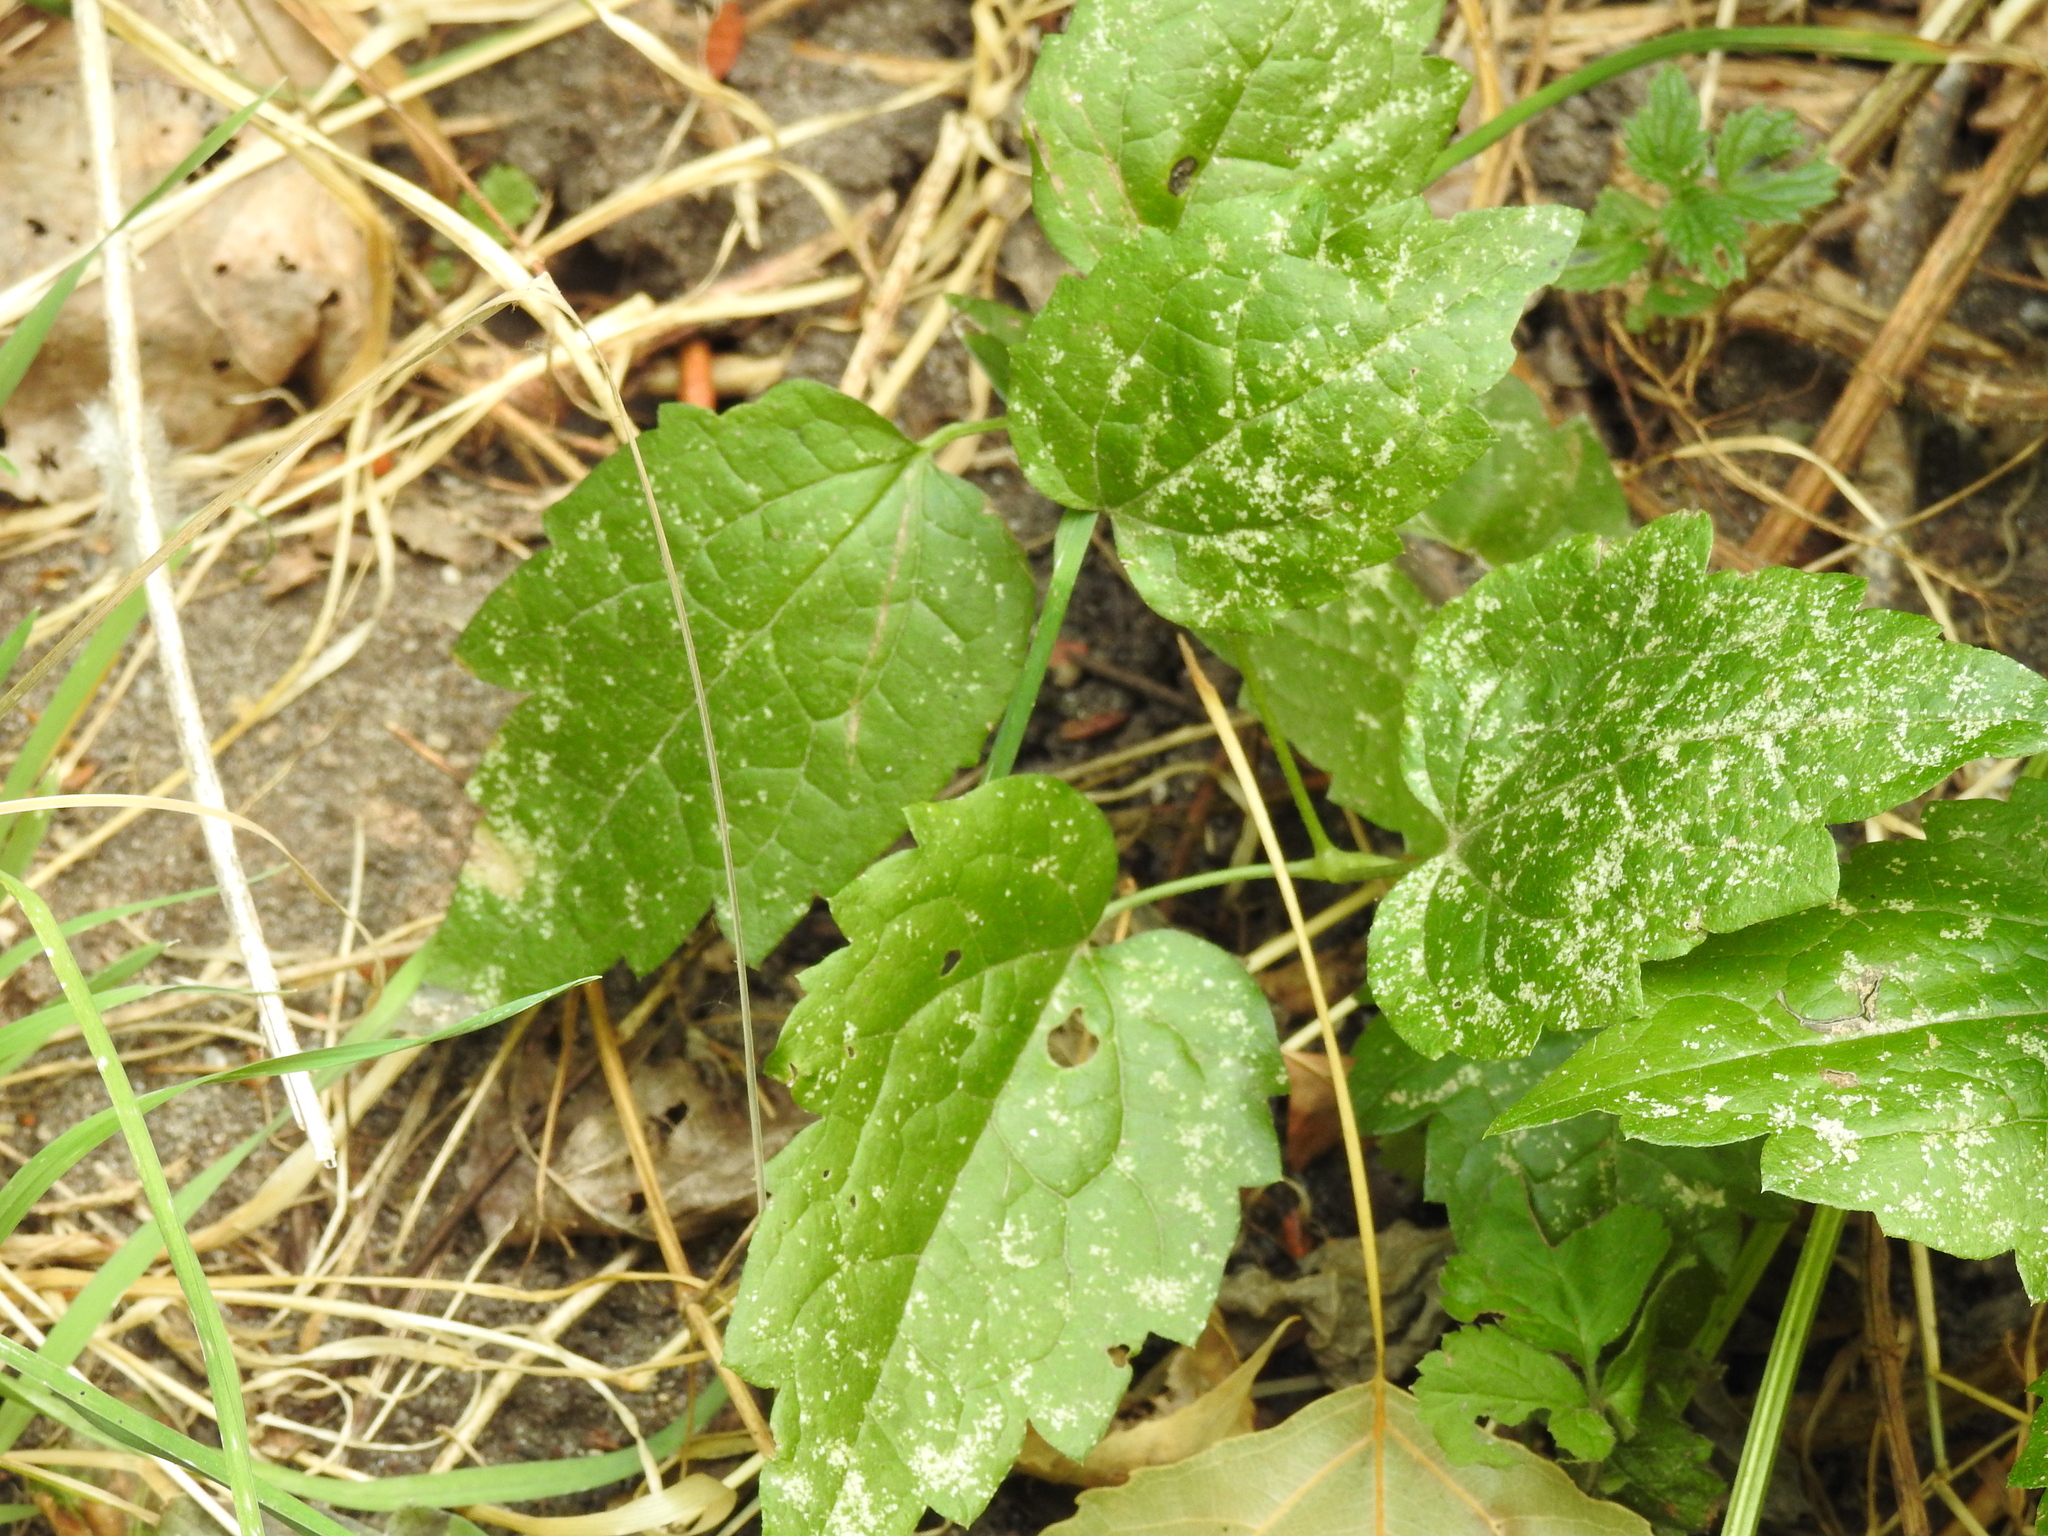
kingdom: Plantae
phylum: Tracheophyta
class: Magnoliopsida
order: Lamiales
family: Lamiaceae
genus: Lamium
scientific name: Lamium galeobdolon
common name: Yellow archangel
